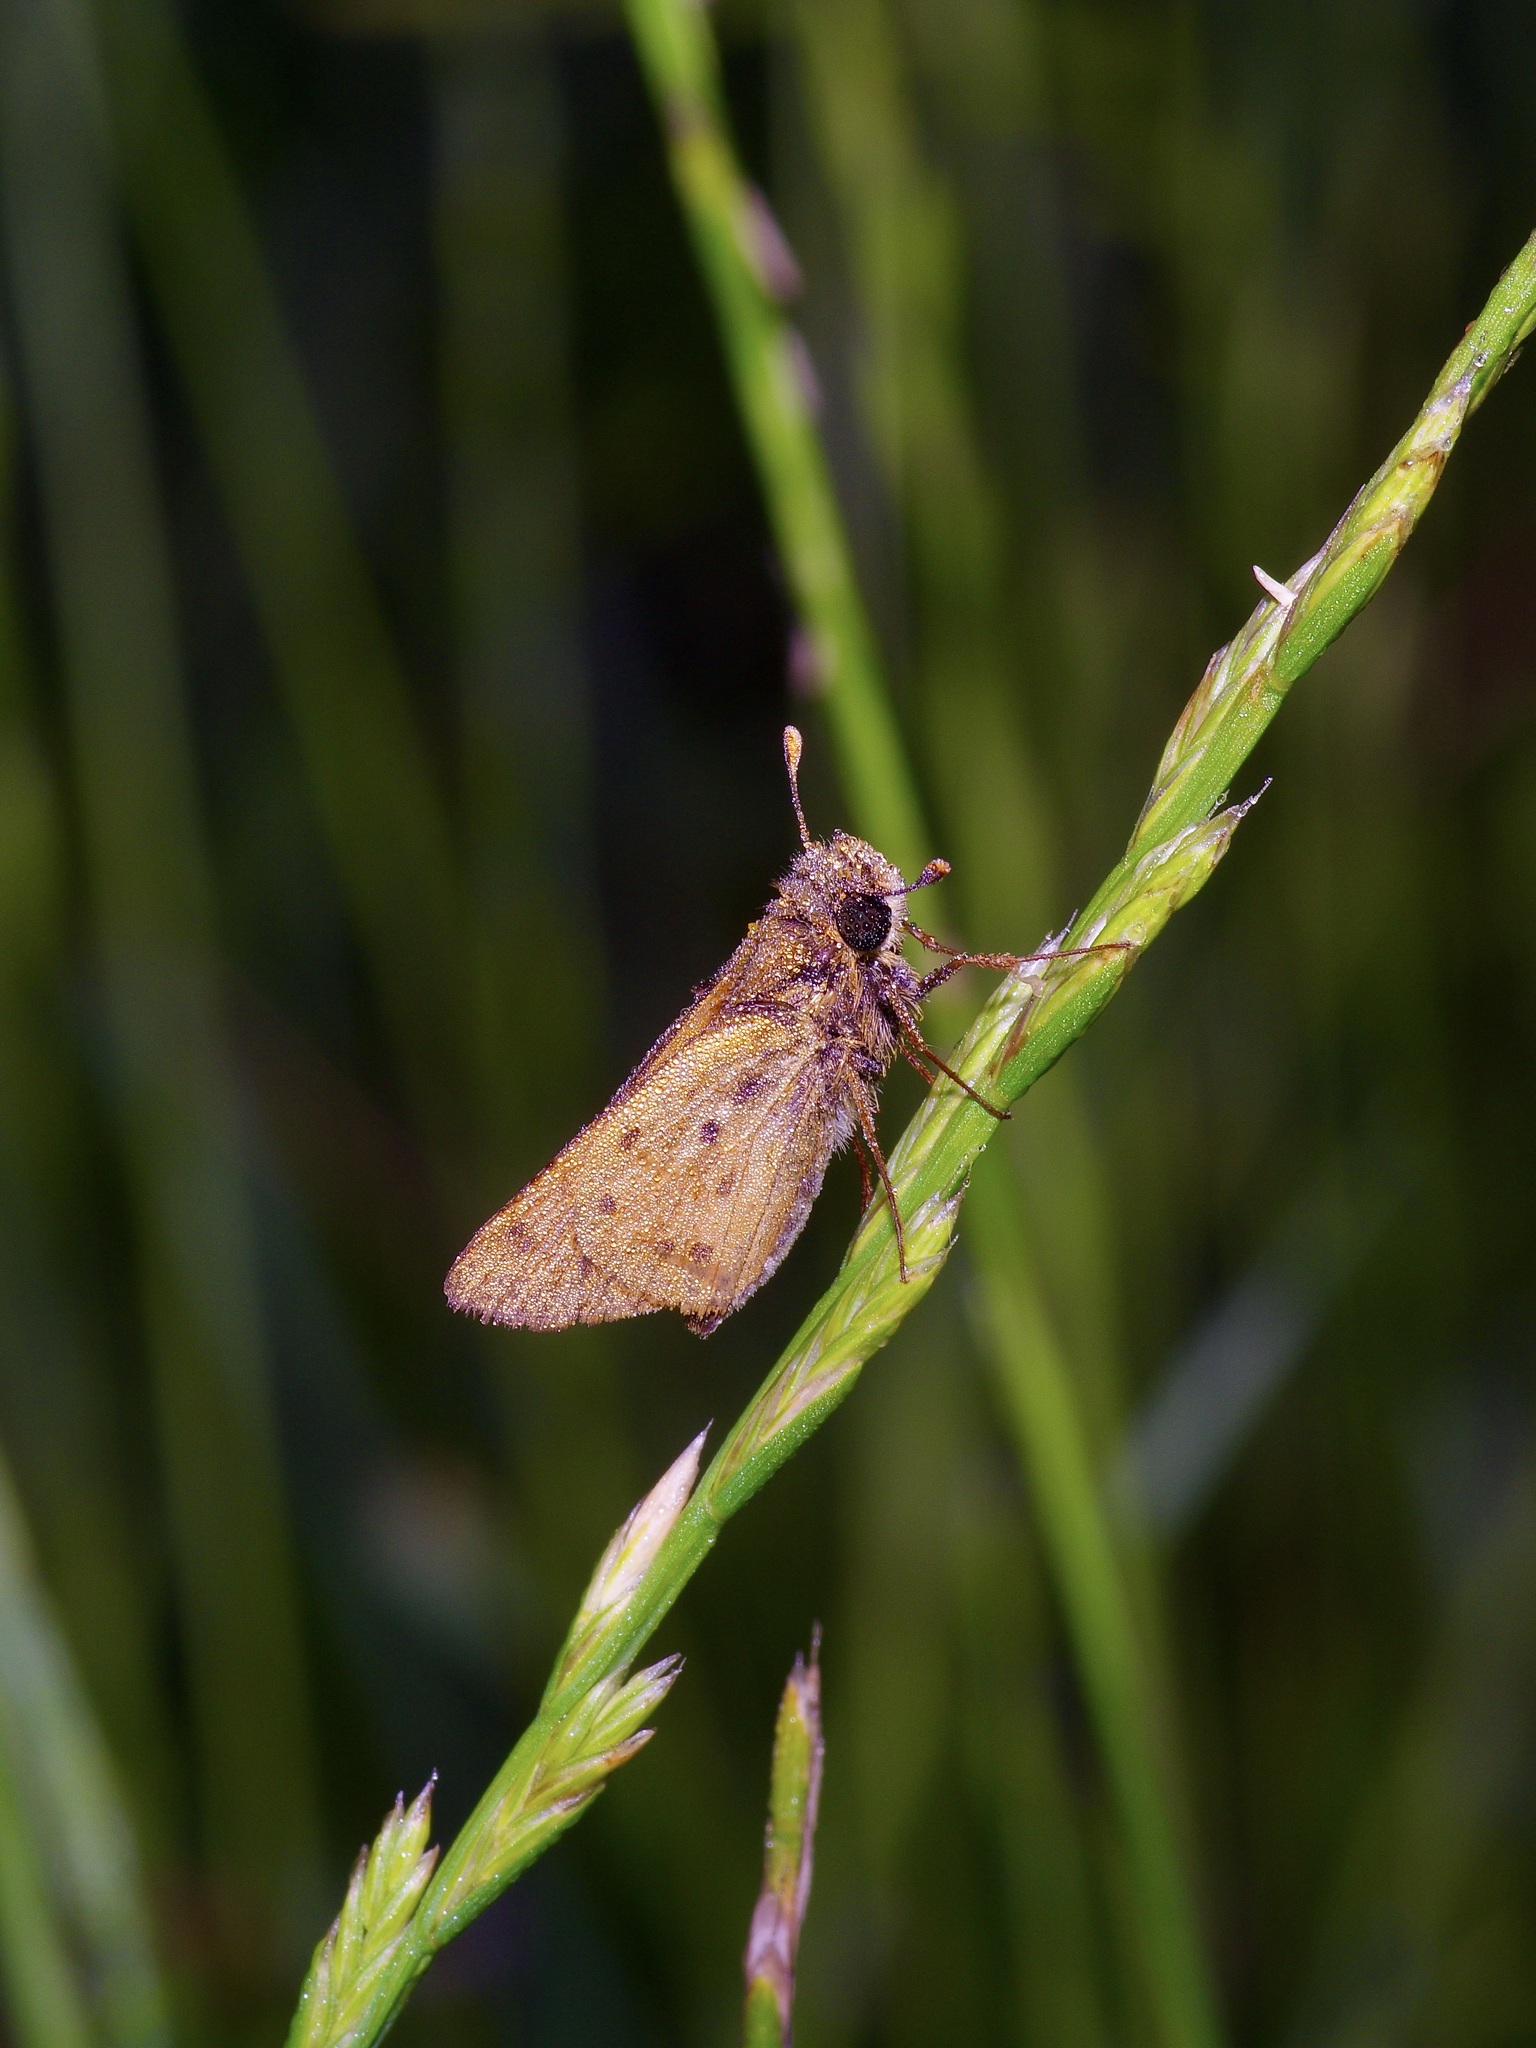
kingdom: Animalia
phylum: Arthropoda
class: Insecta
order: Lepidoptera
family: Hesperiidae
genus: Hylephila
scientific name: Hylephila phyleus
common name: Fiery skipper
